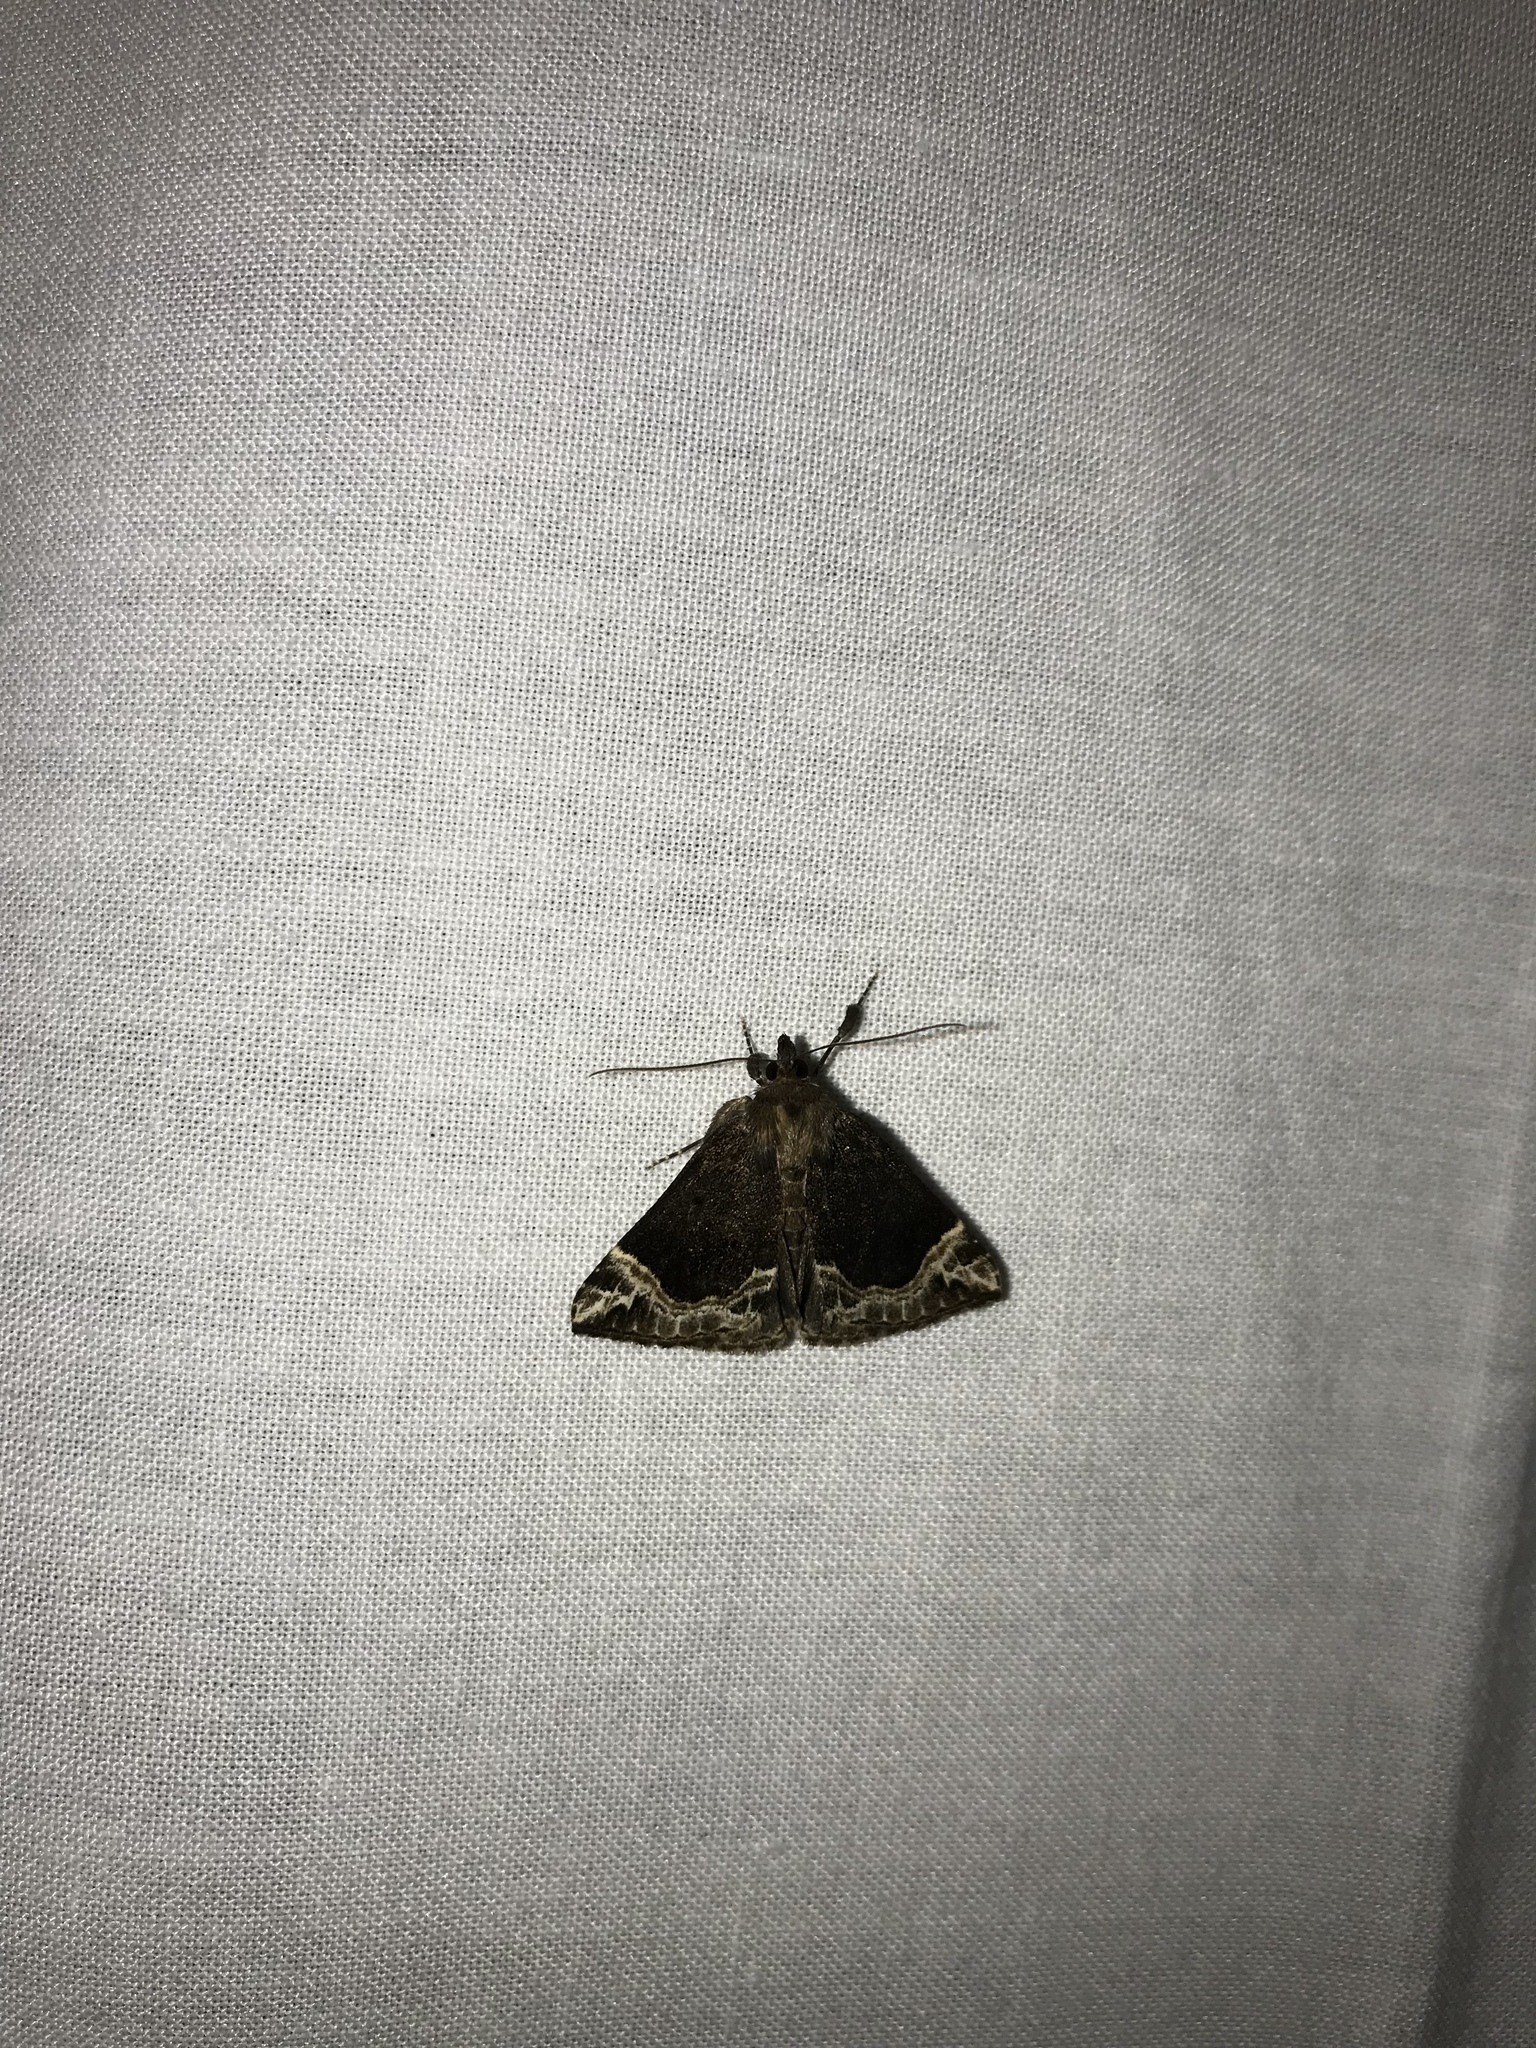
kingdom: Animalia
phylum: Arthropoda
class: Insecta
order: Lepidoptera
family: Erebidae
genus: Hypena
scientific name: Hypena abalienalis
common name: White-lined snout
